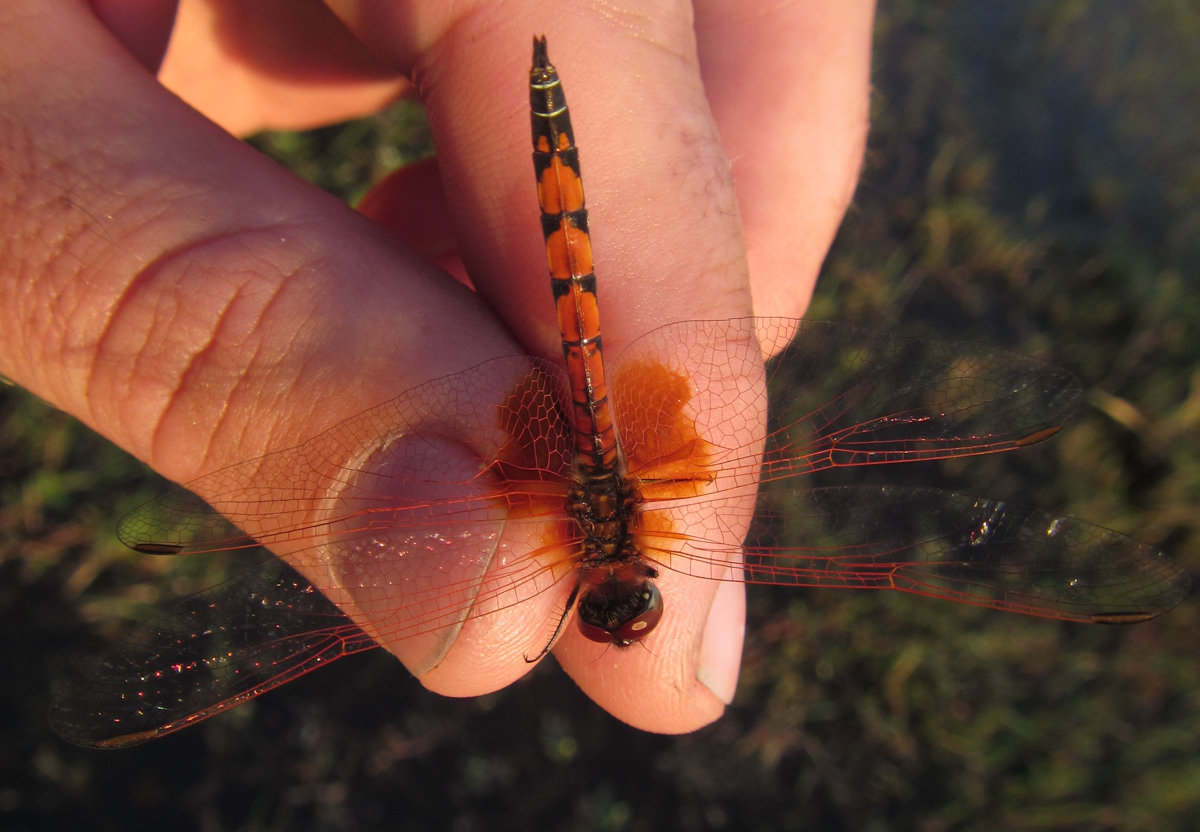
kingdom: Animalia
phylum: Arthropoda
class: Insecta
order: Odonata
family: Libellulidae
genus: Trithemis
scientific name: Trithemis monardi
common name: Monard's dropwing
